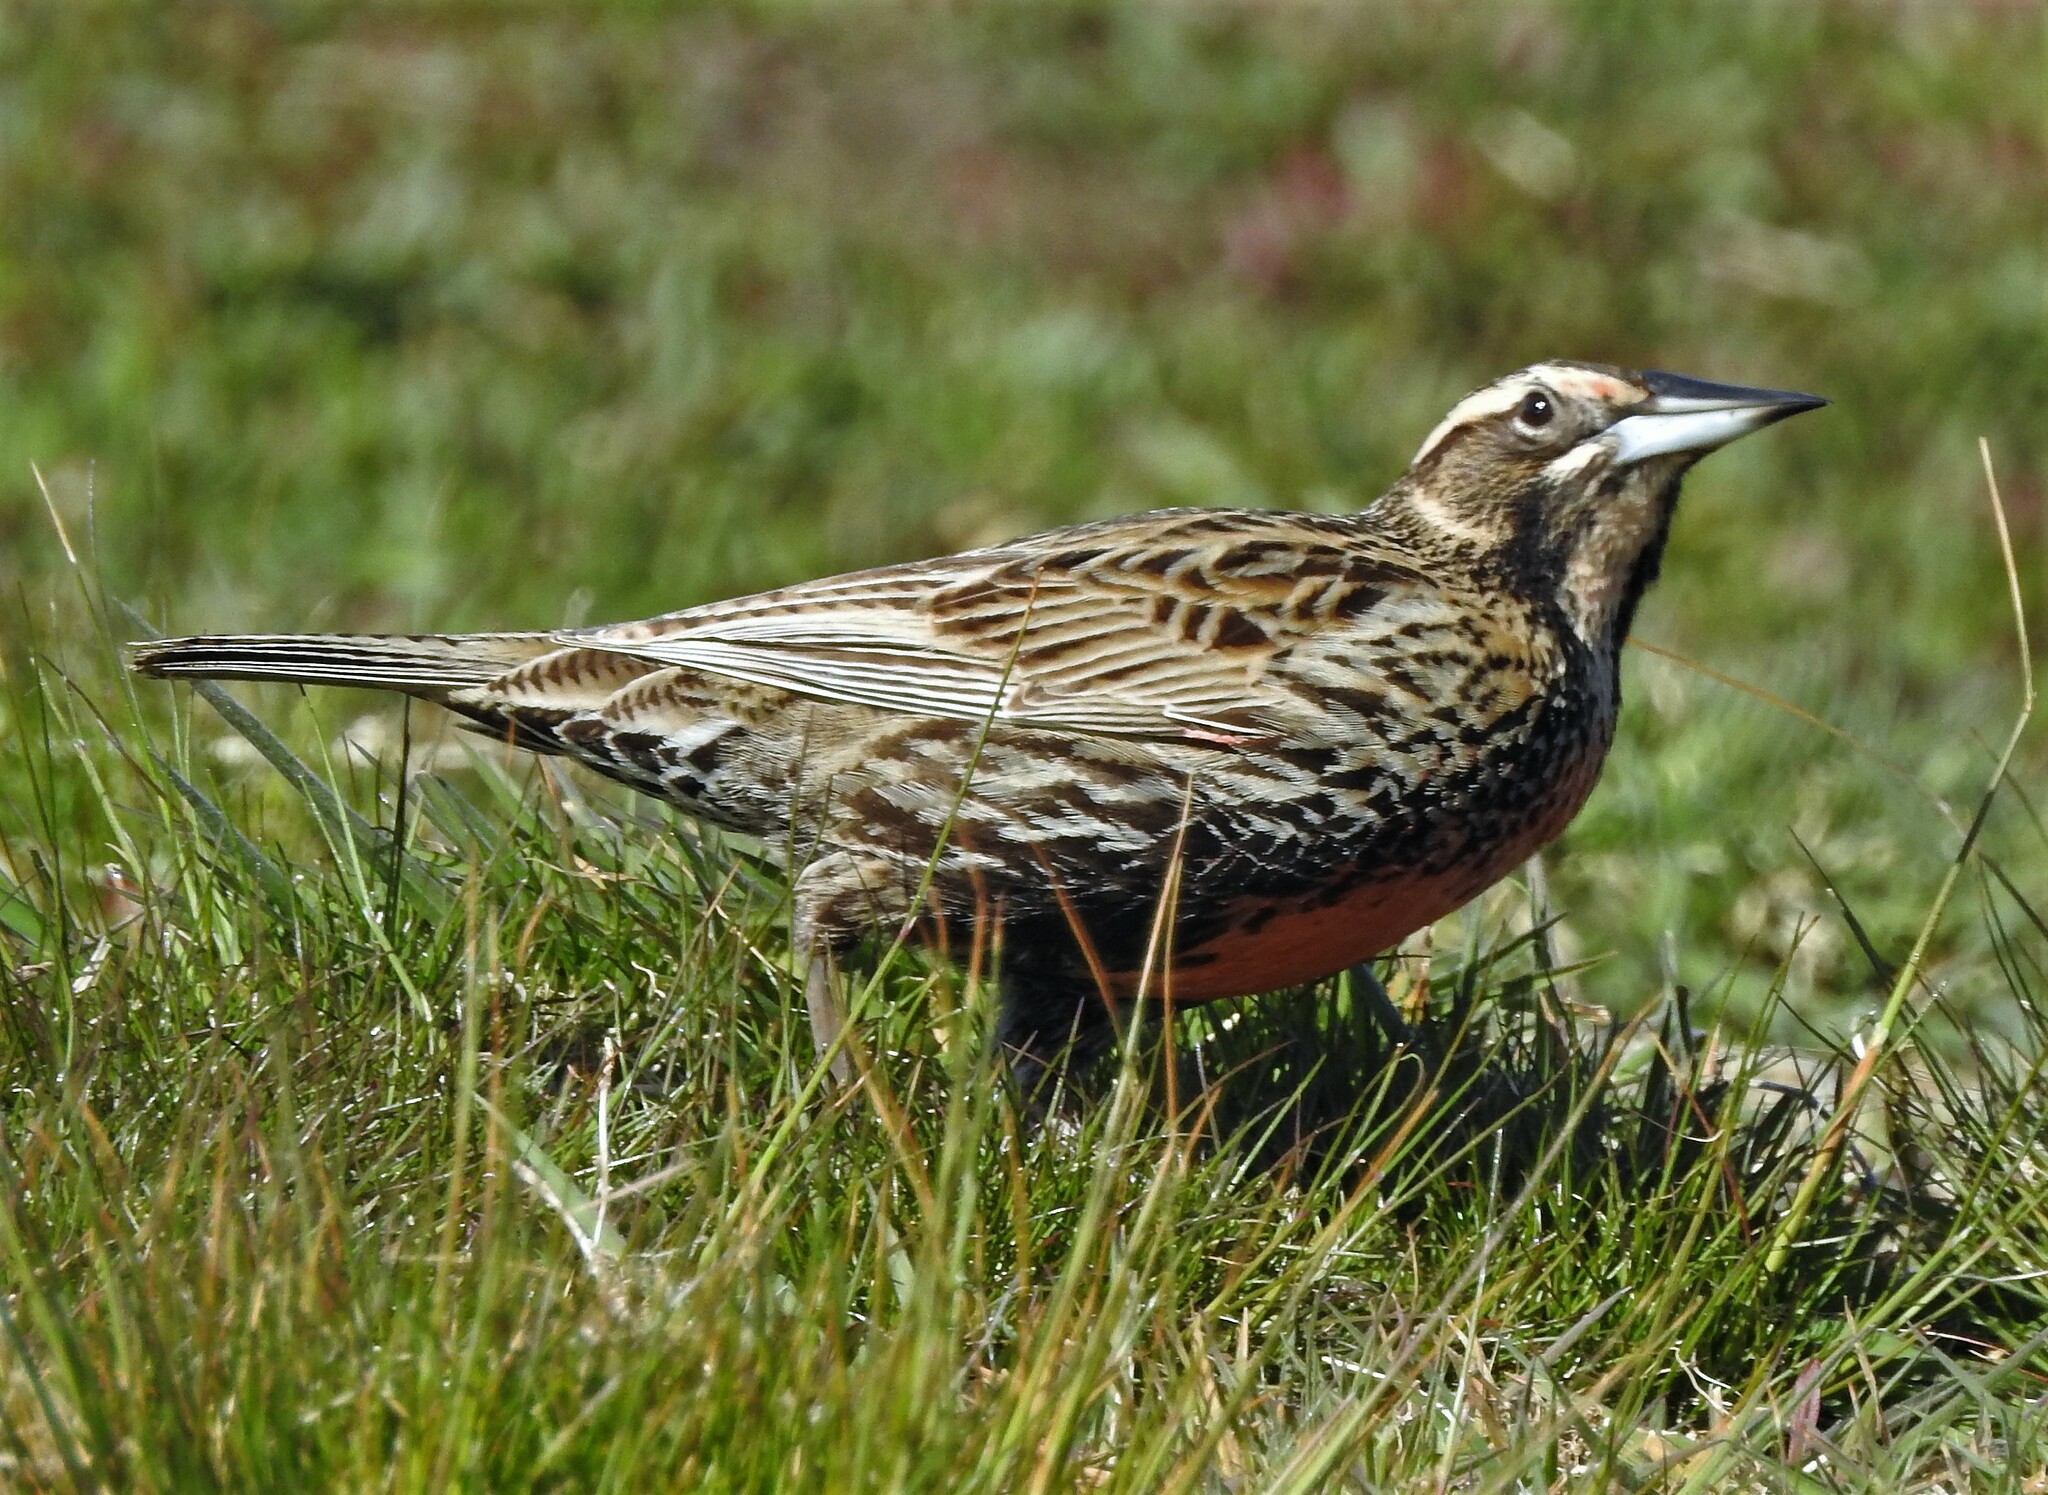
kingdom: Animalia
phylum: Chordata
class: Aves
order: Passeriformes
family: Icteridae
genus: Sturnella
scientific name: Sturnella loyca
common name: Long-tailed meadowlark
